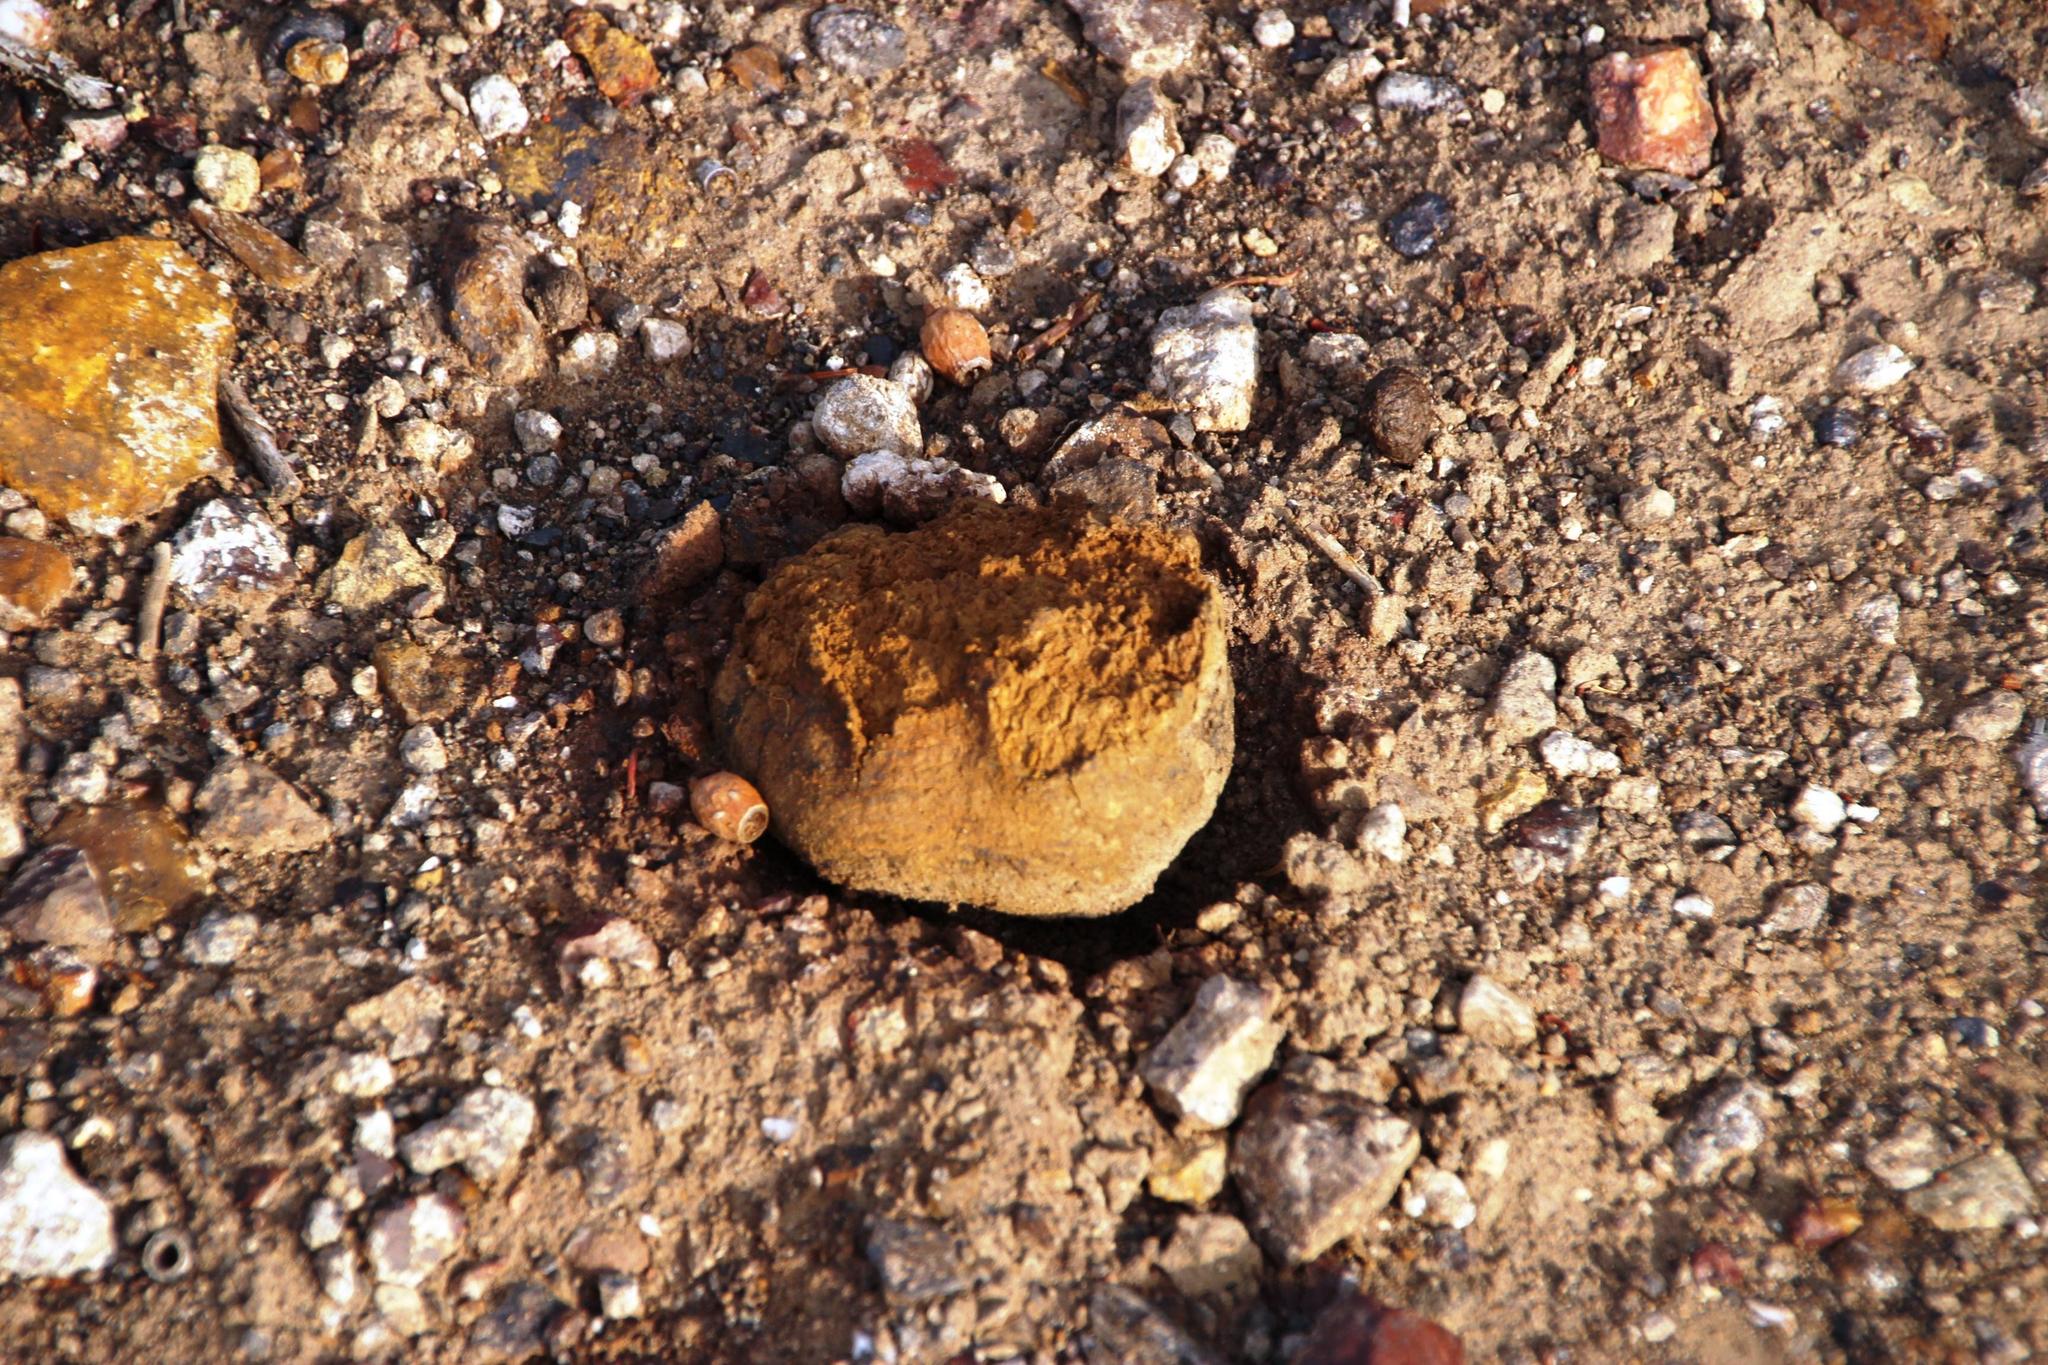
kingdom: Fungi
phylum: Basidiomycota
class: Agaricomycetes
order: Boletales
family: Sclerodermataceae
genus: Pisolithus
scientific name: Pisolithus tinctorius
